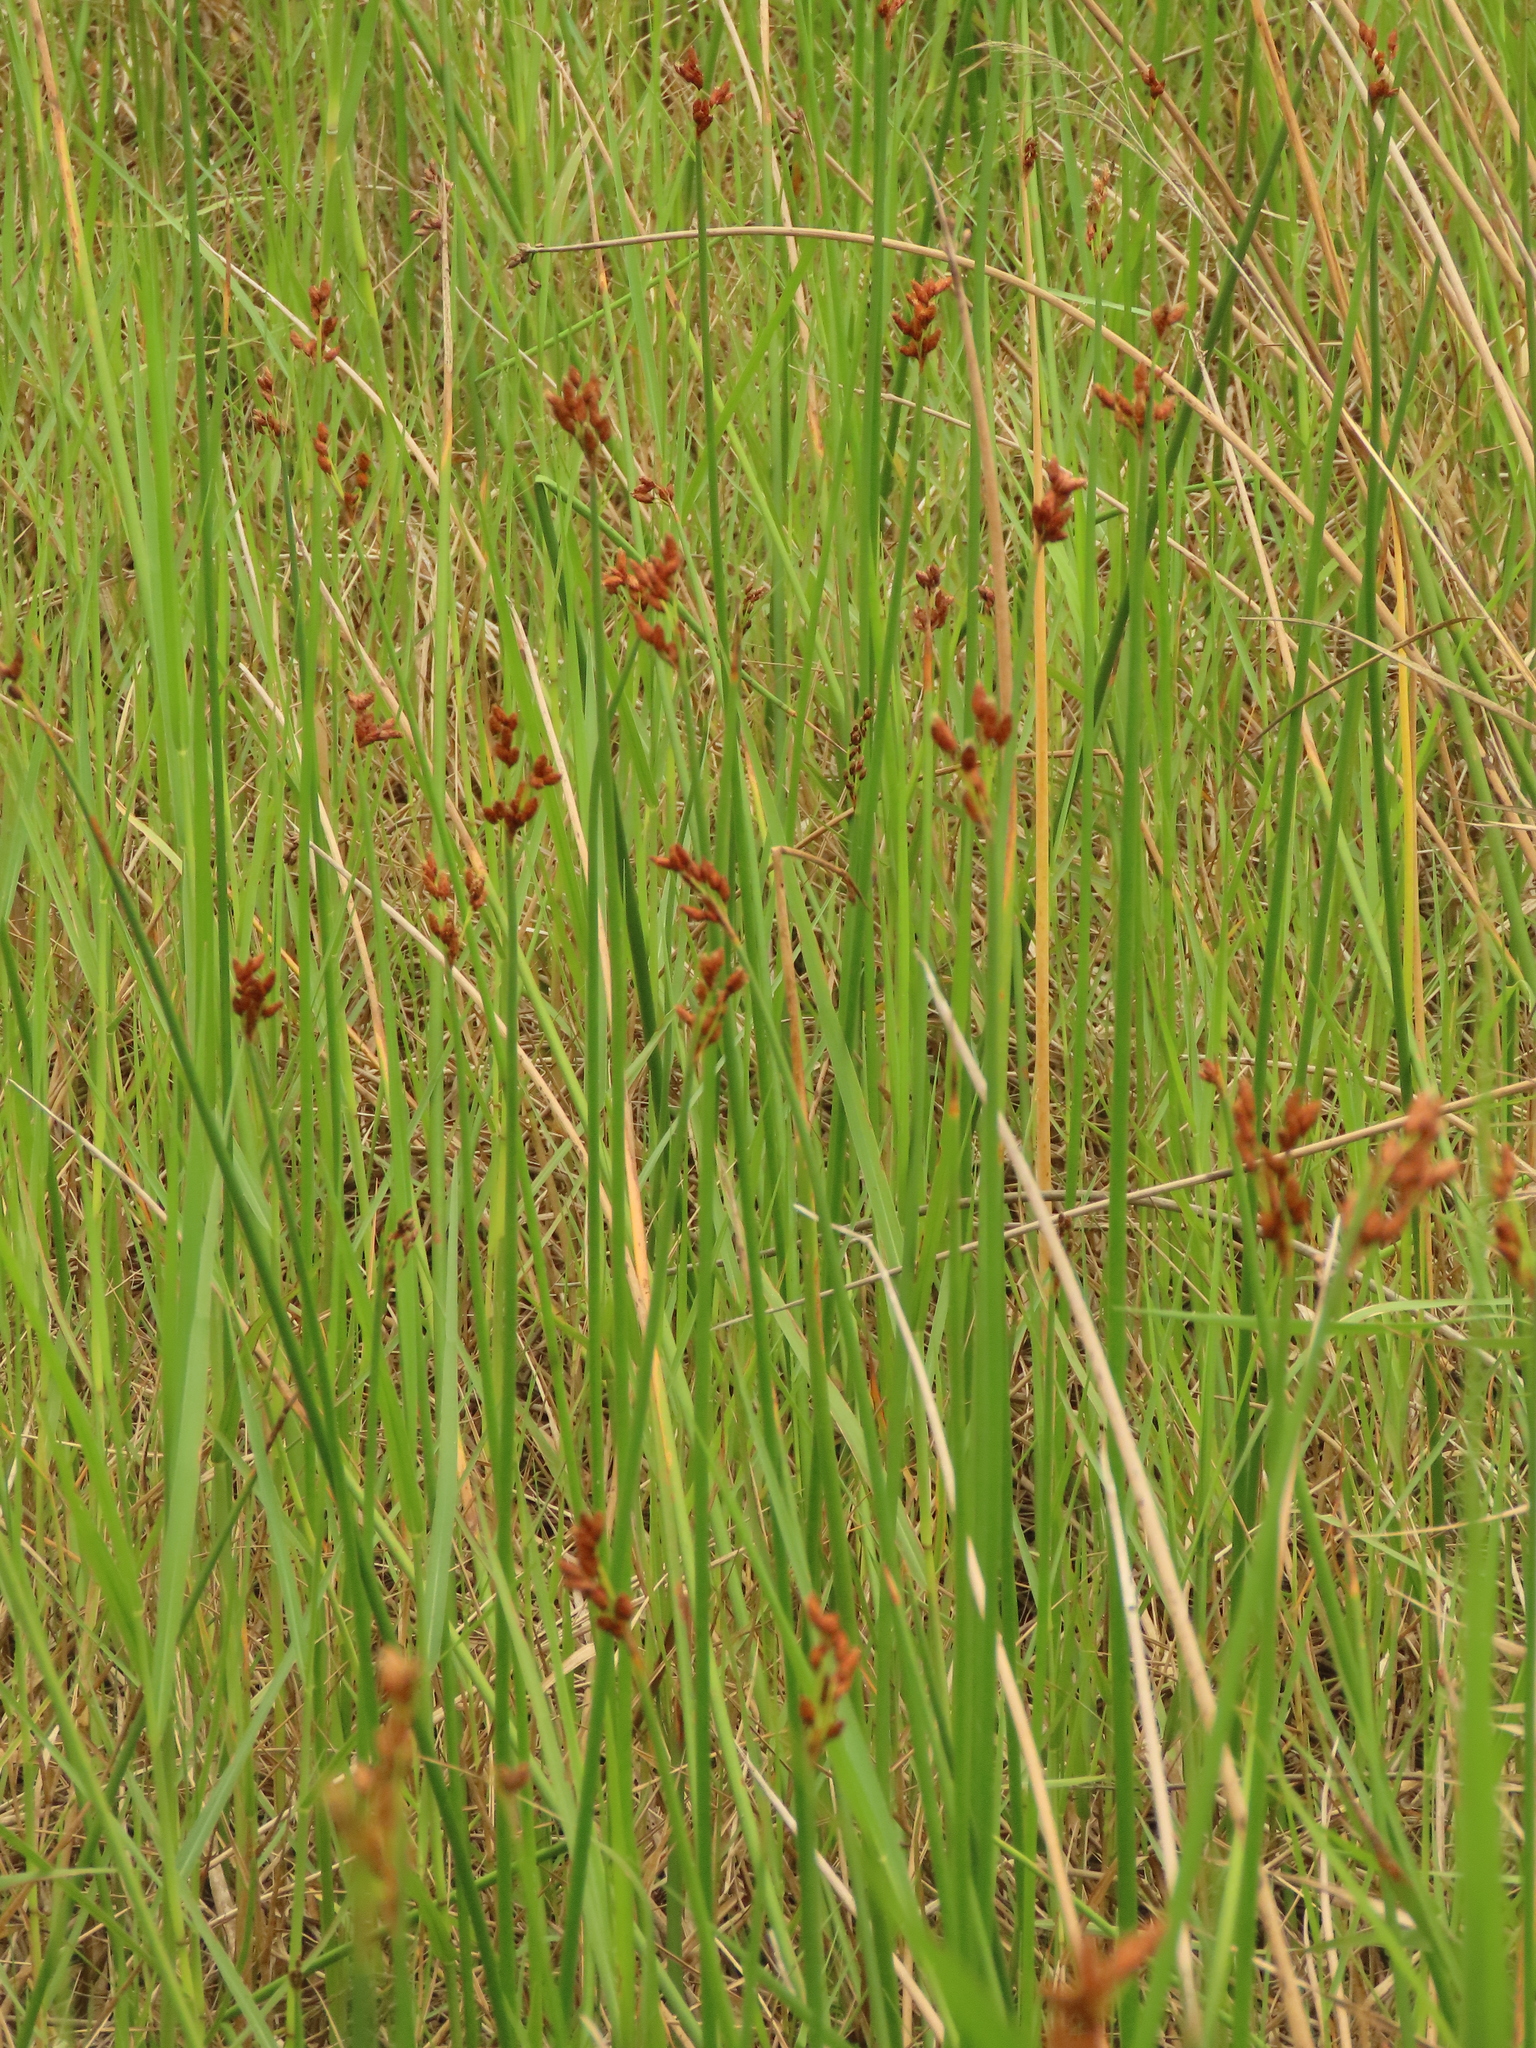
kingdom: Plantae
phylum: Tracheophyta
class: Liliopsida
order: Poales
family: Cyperaceae
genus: Schoenoplectus
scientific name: Schoenoplectus tabernaemontani
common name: Grey club-rush
